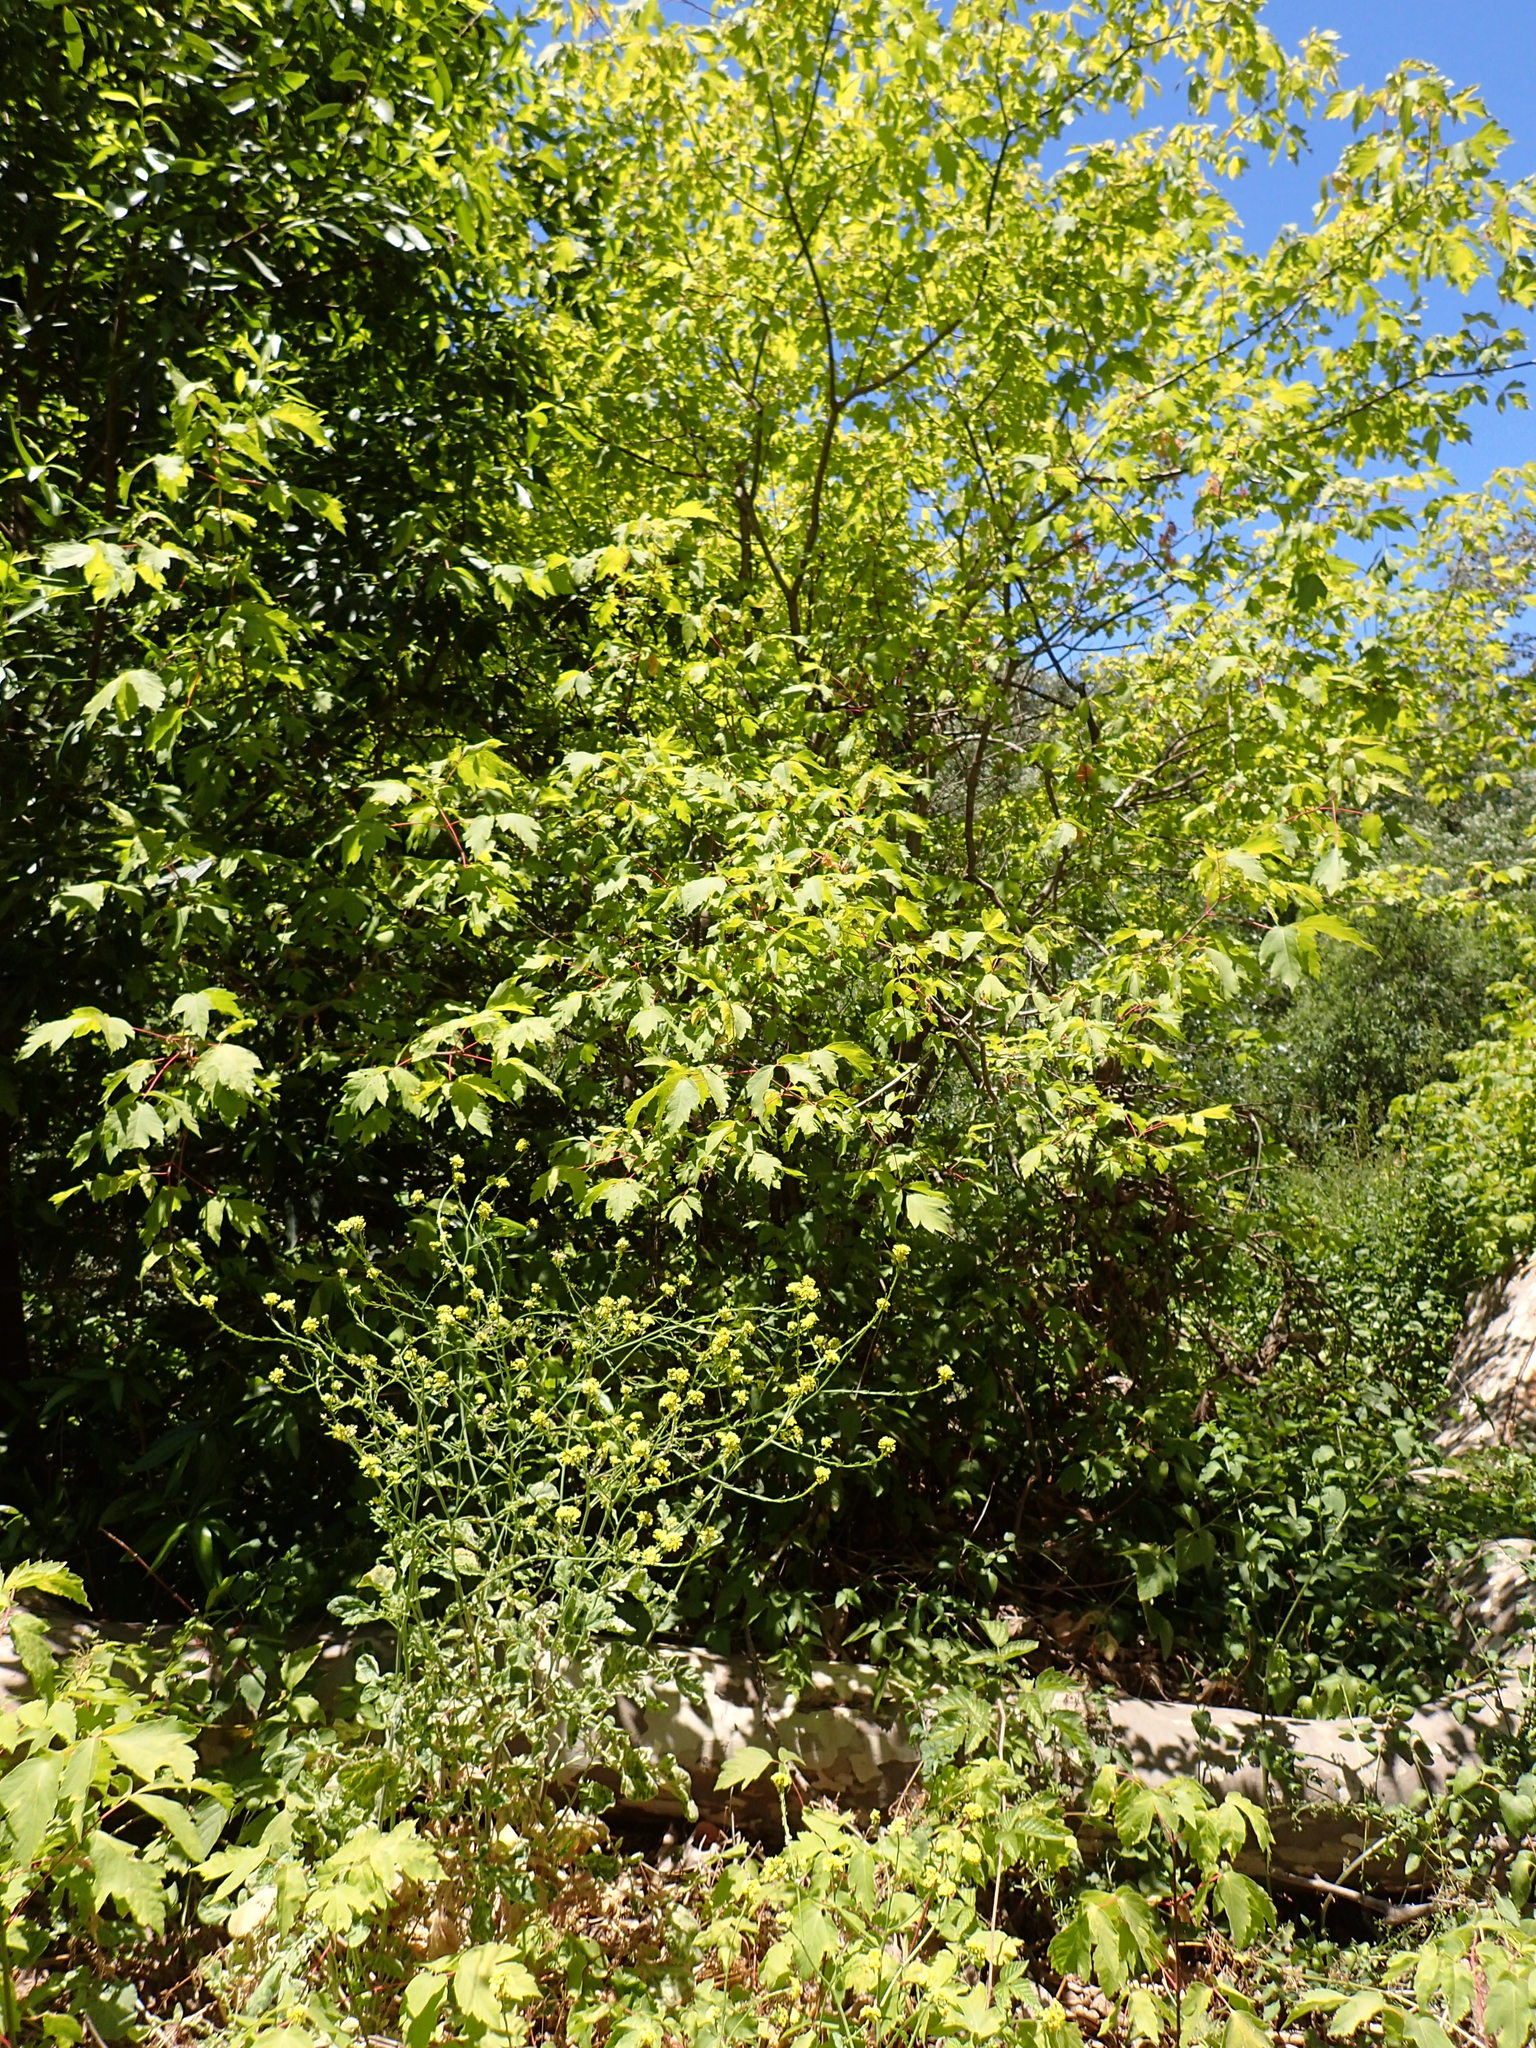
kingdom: Plantae
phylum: Tracheophyta
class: Magnoliopsida
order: Sapindales
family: Sapindaceae
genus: Acer
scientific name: Acer negundo
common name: Ashleaf maple
